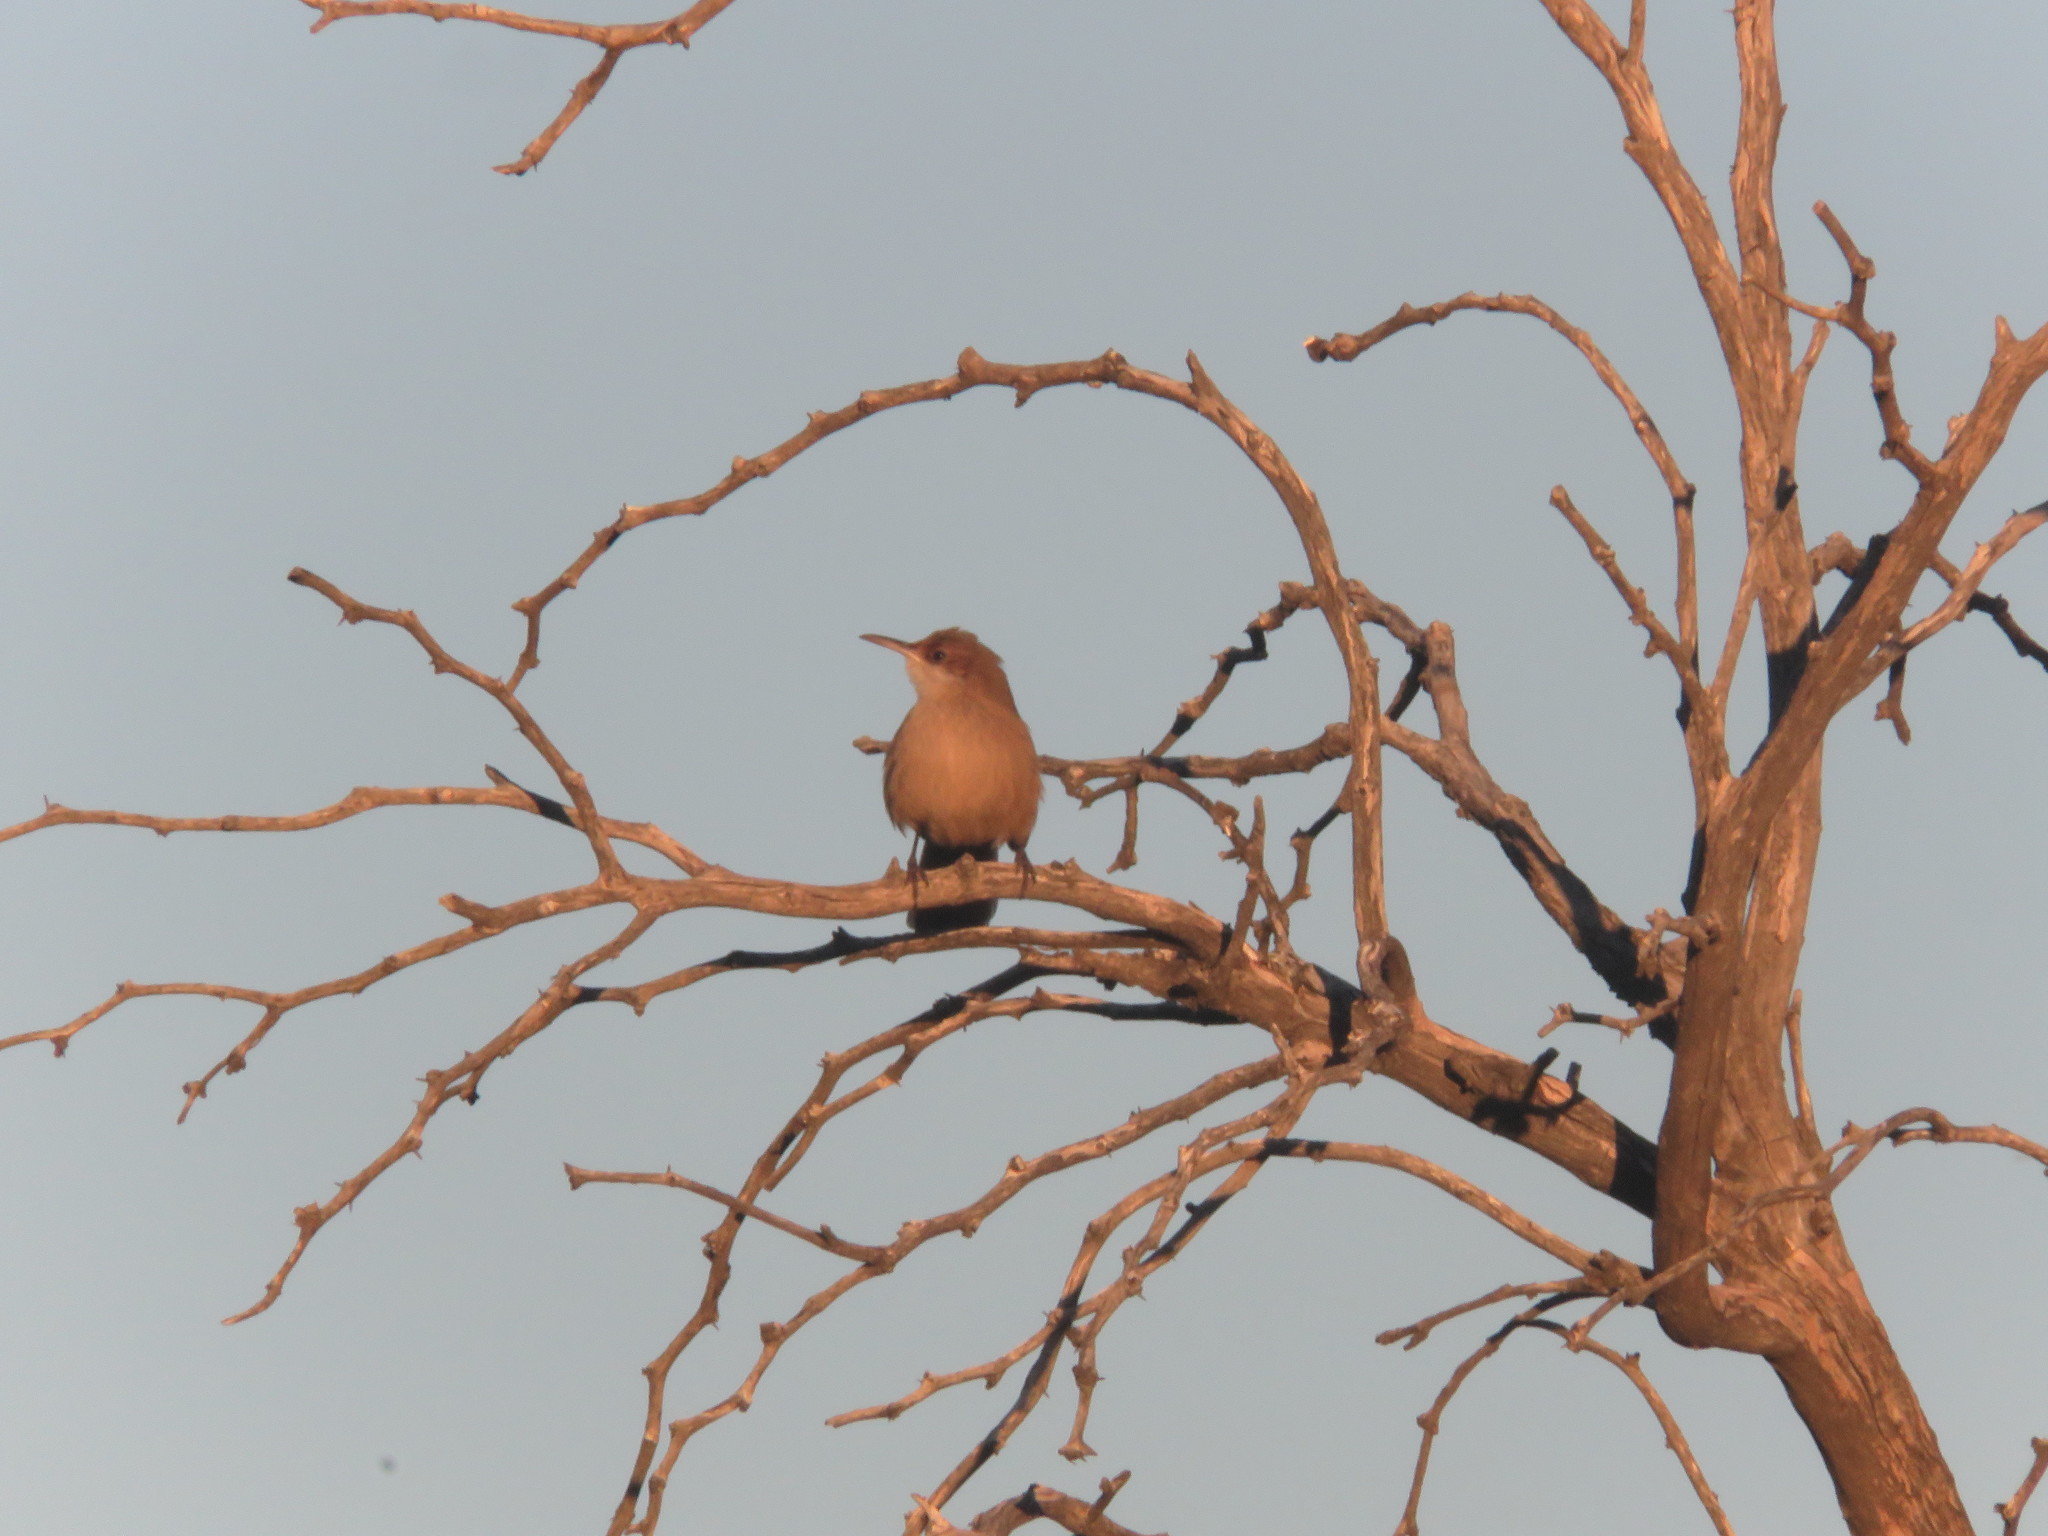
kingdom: Animalia
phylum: Chordata
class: Aves
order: Passeriformes
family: Furnariidae
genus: Upucerthia
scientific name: Upucerthia certhioides
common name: Chaco earthcreeper
